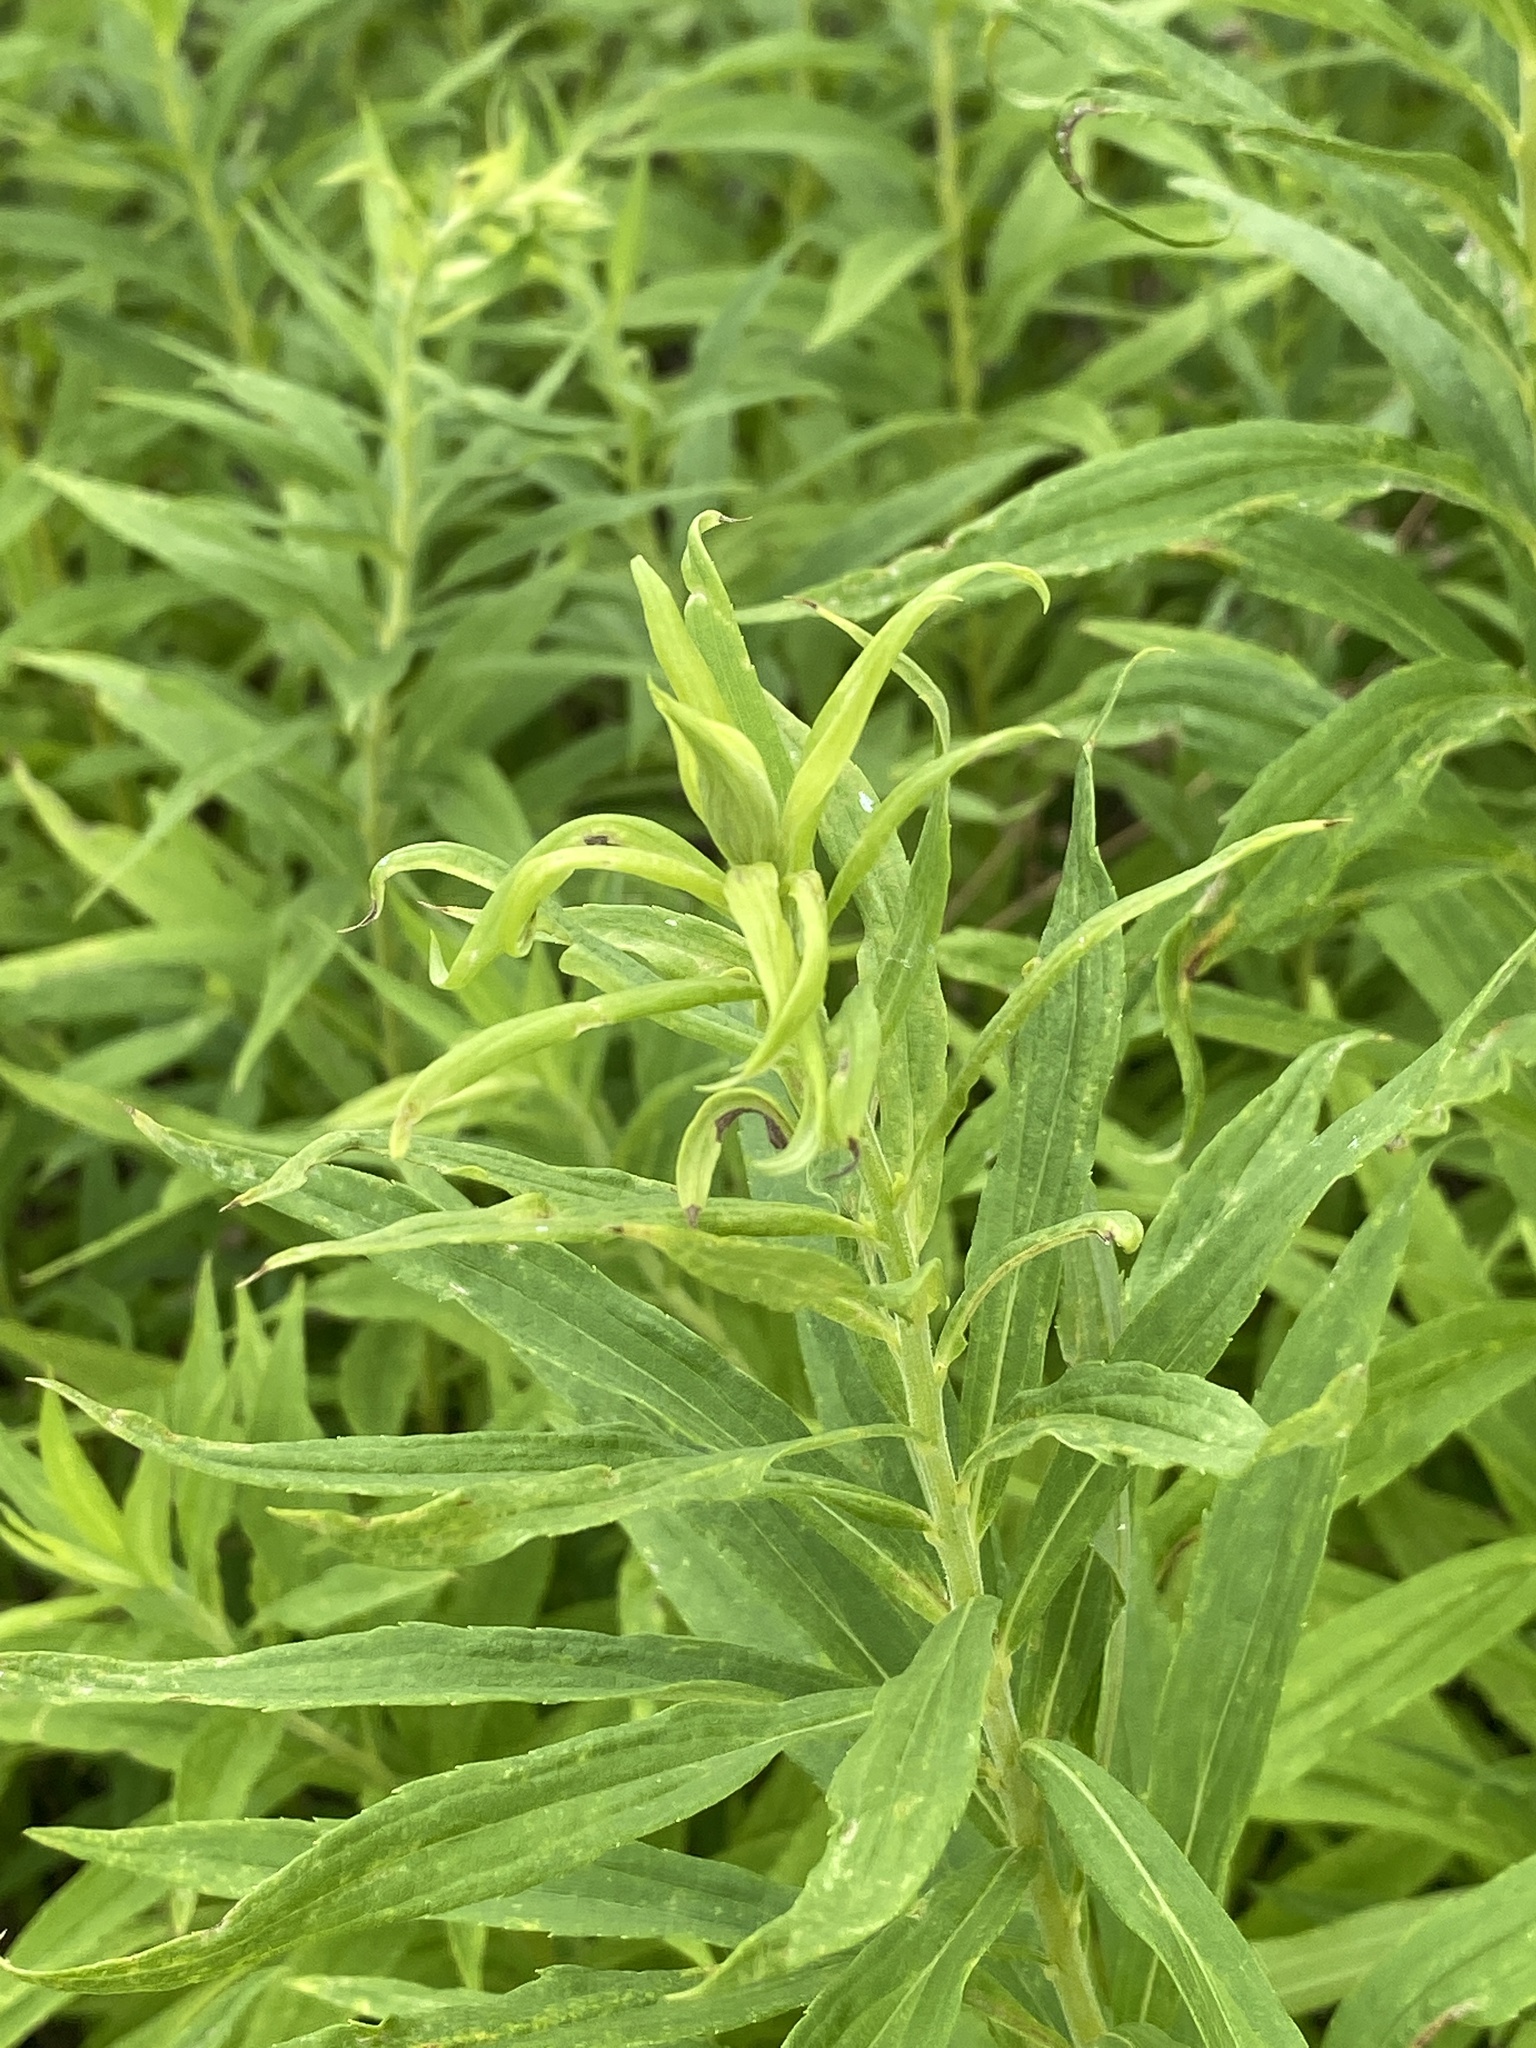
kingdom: Plantae
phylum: Tracheophyta
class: Magnoliopsida
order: Asterales
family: Asteraceae
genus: Solidago
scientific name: Solidago altissima
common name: Late goldenrod
